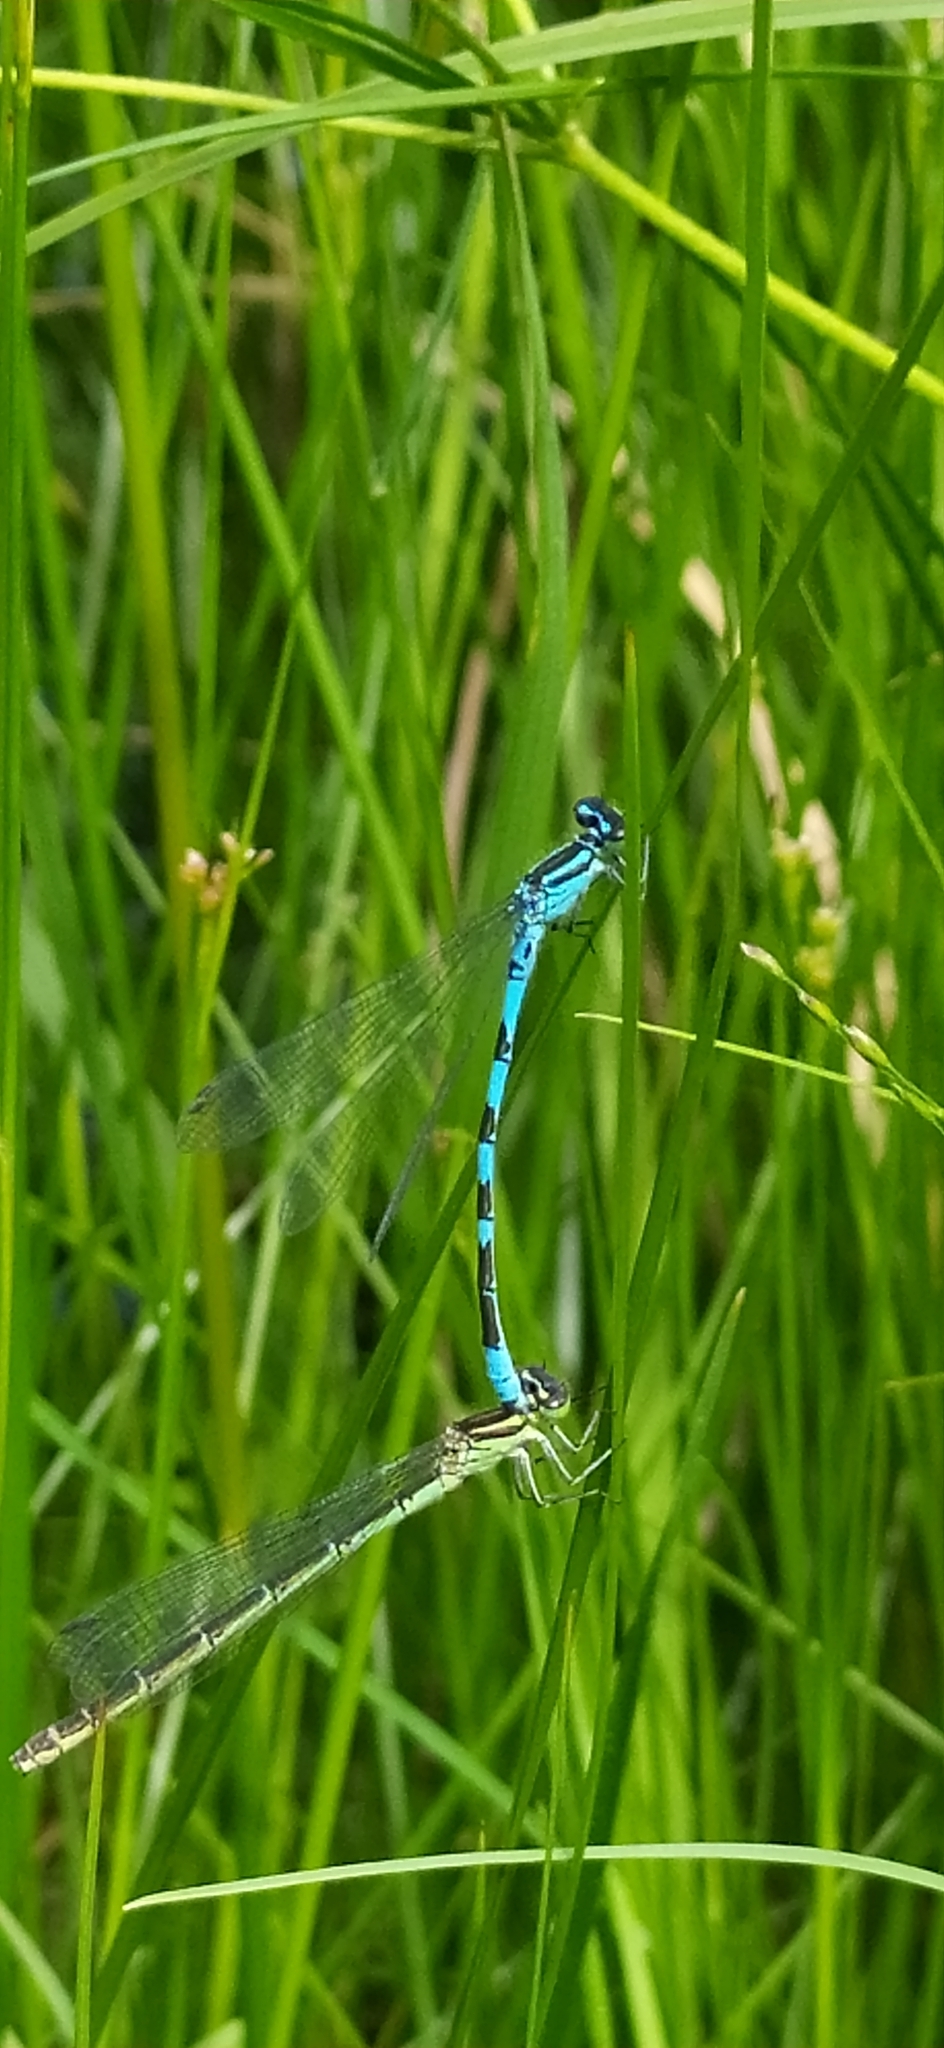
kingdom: Animalia
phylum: Arthropoda
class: Insecta
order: Odonata
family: Coenagrionidae
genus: Coenagrion
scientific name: Coenagrion hastulatum
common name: Spearhead bluet
